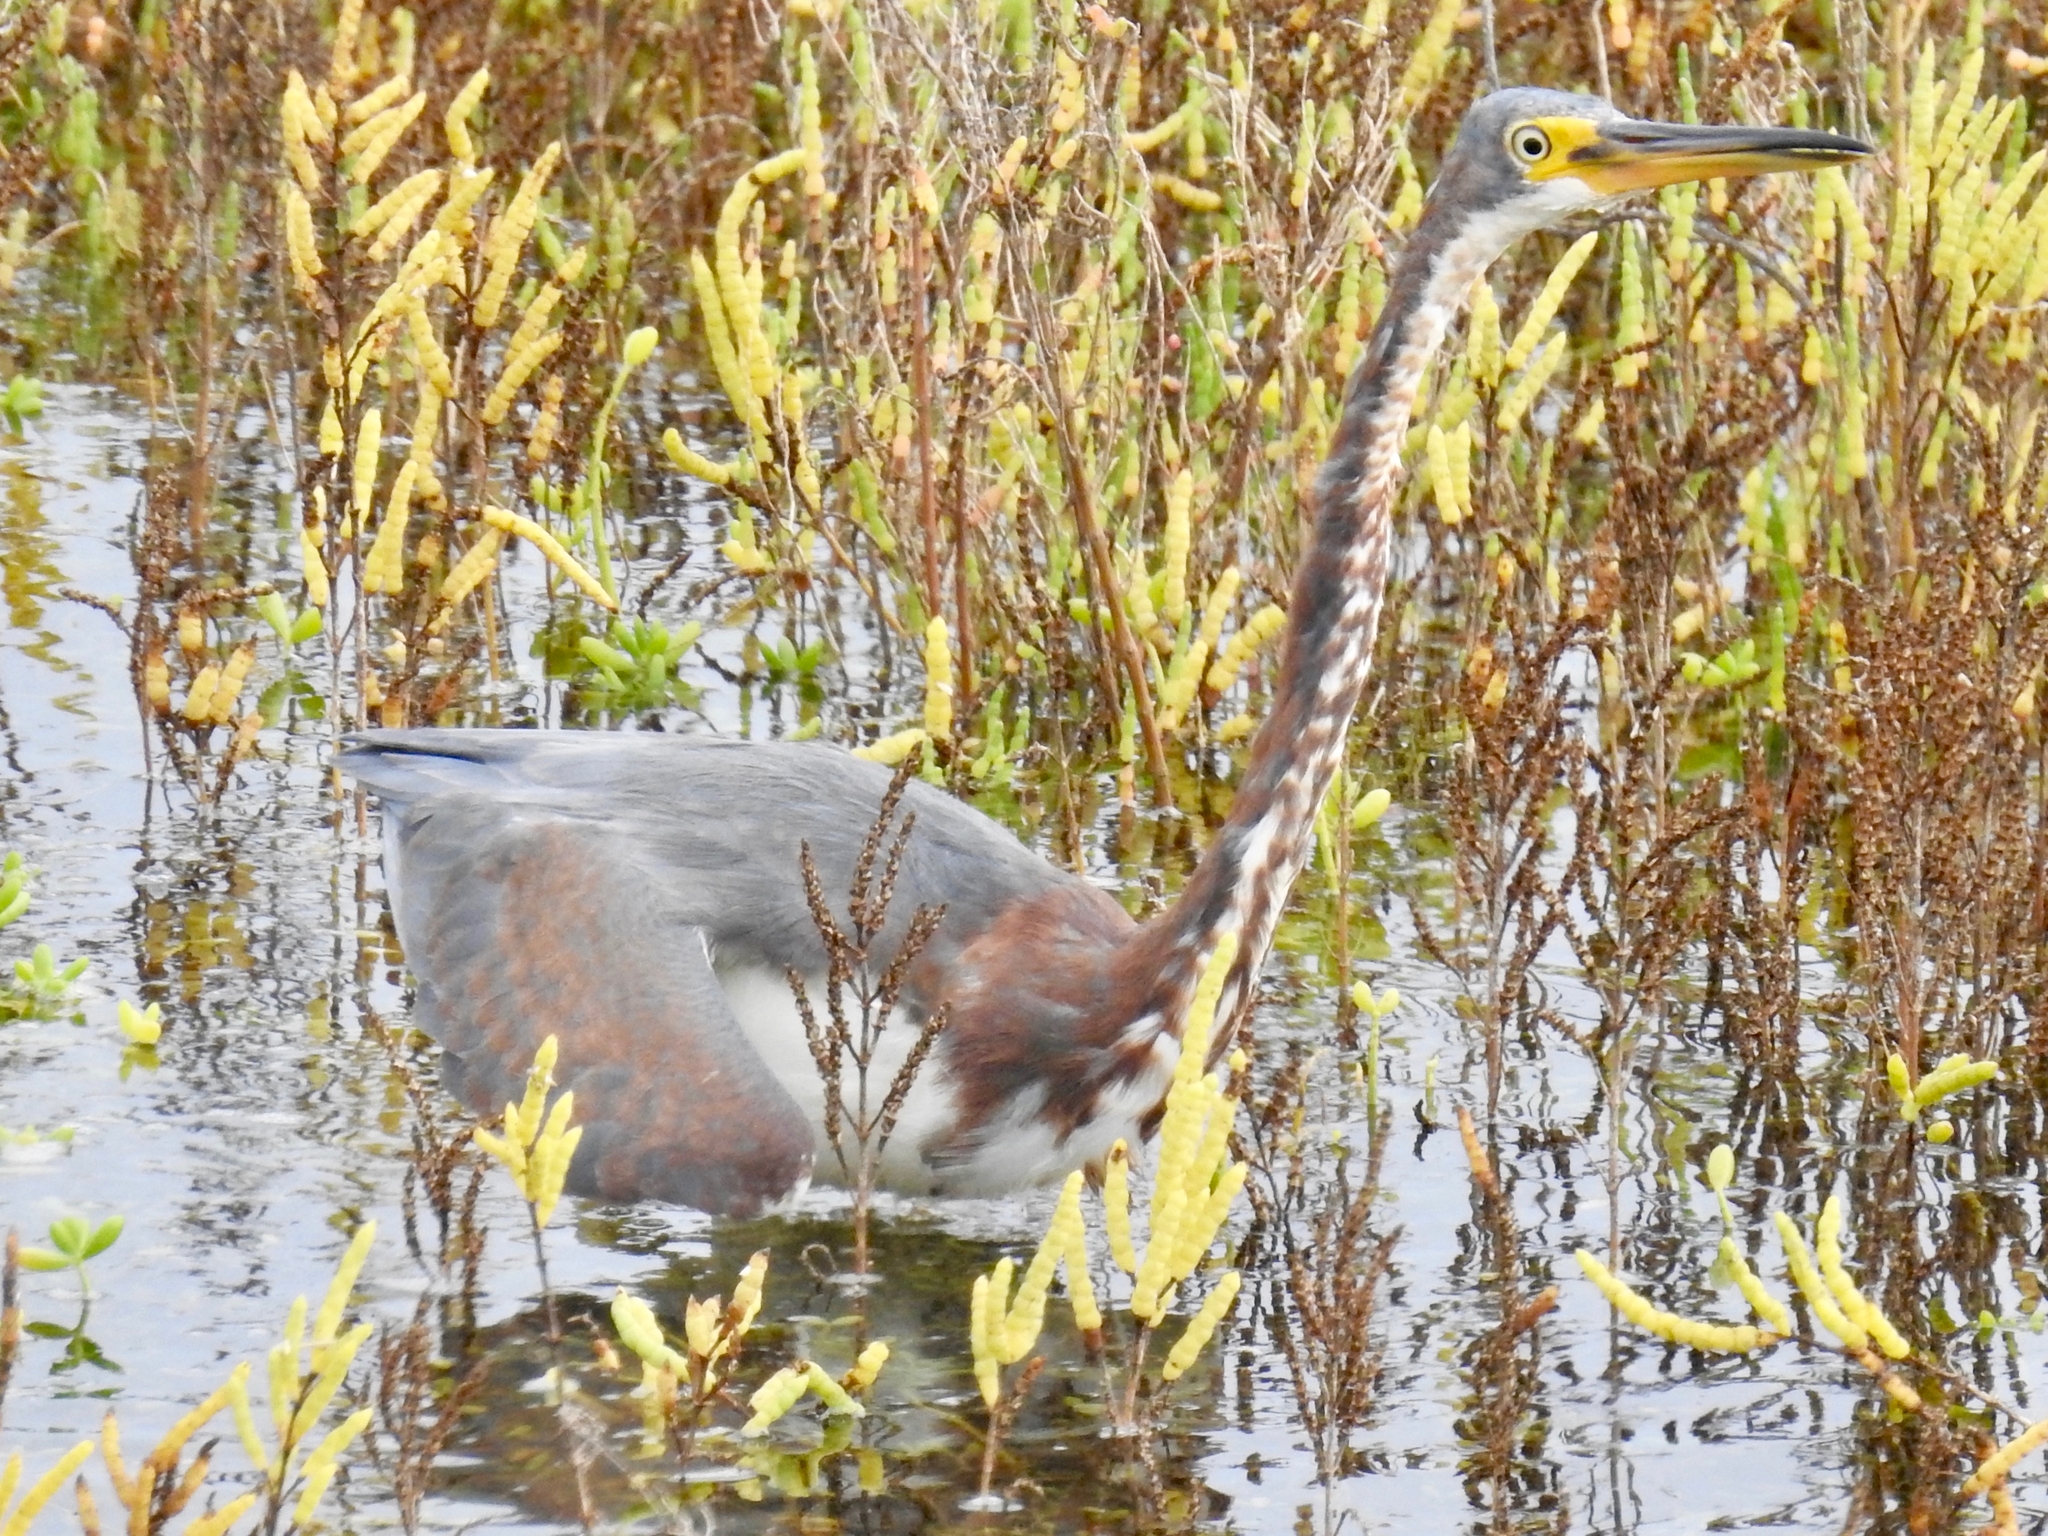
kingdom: Animalia
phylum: Chordata
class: Aves
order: Pelecaniformes
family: Ardeidae
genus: Egretta
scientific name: Egretta tricolor
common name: Tricolored heron
